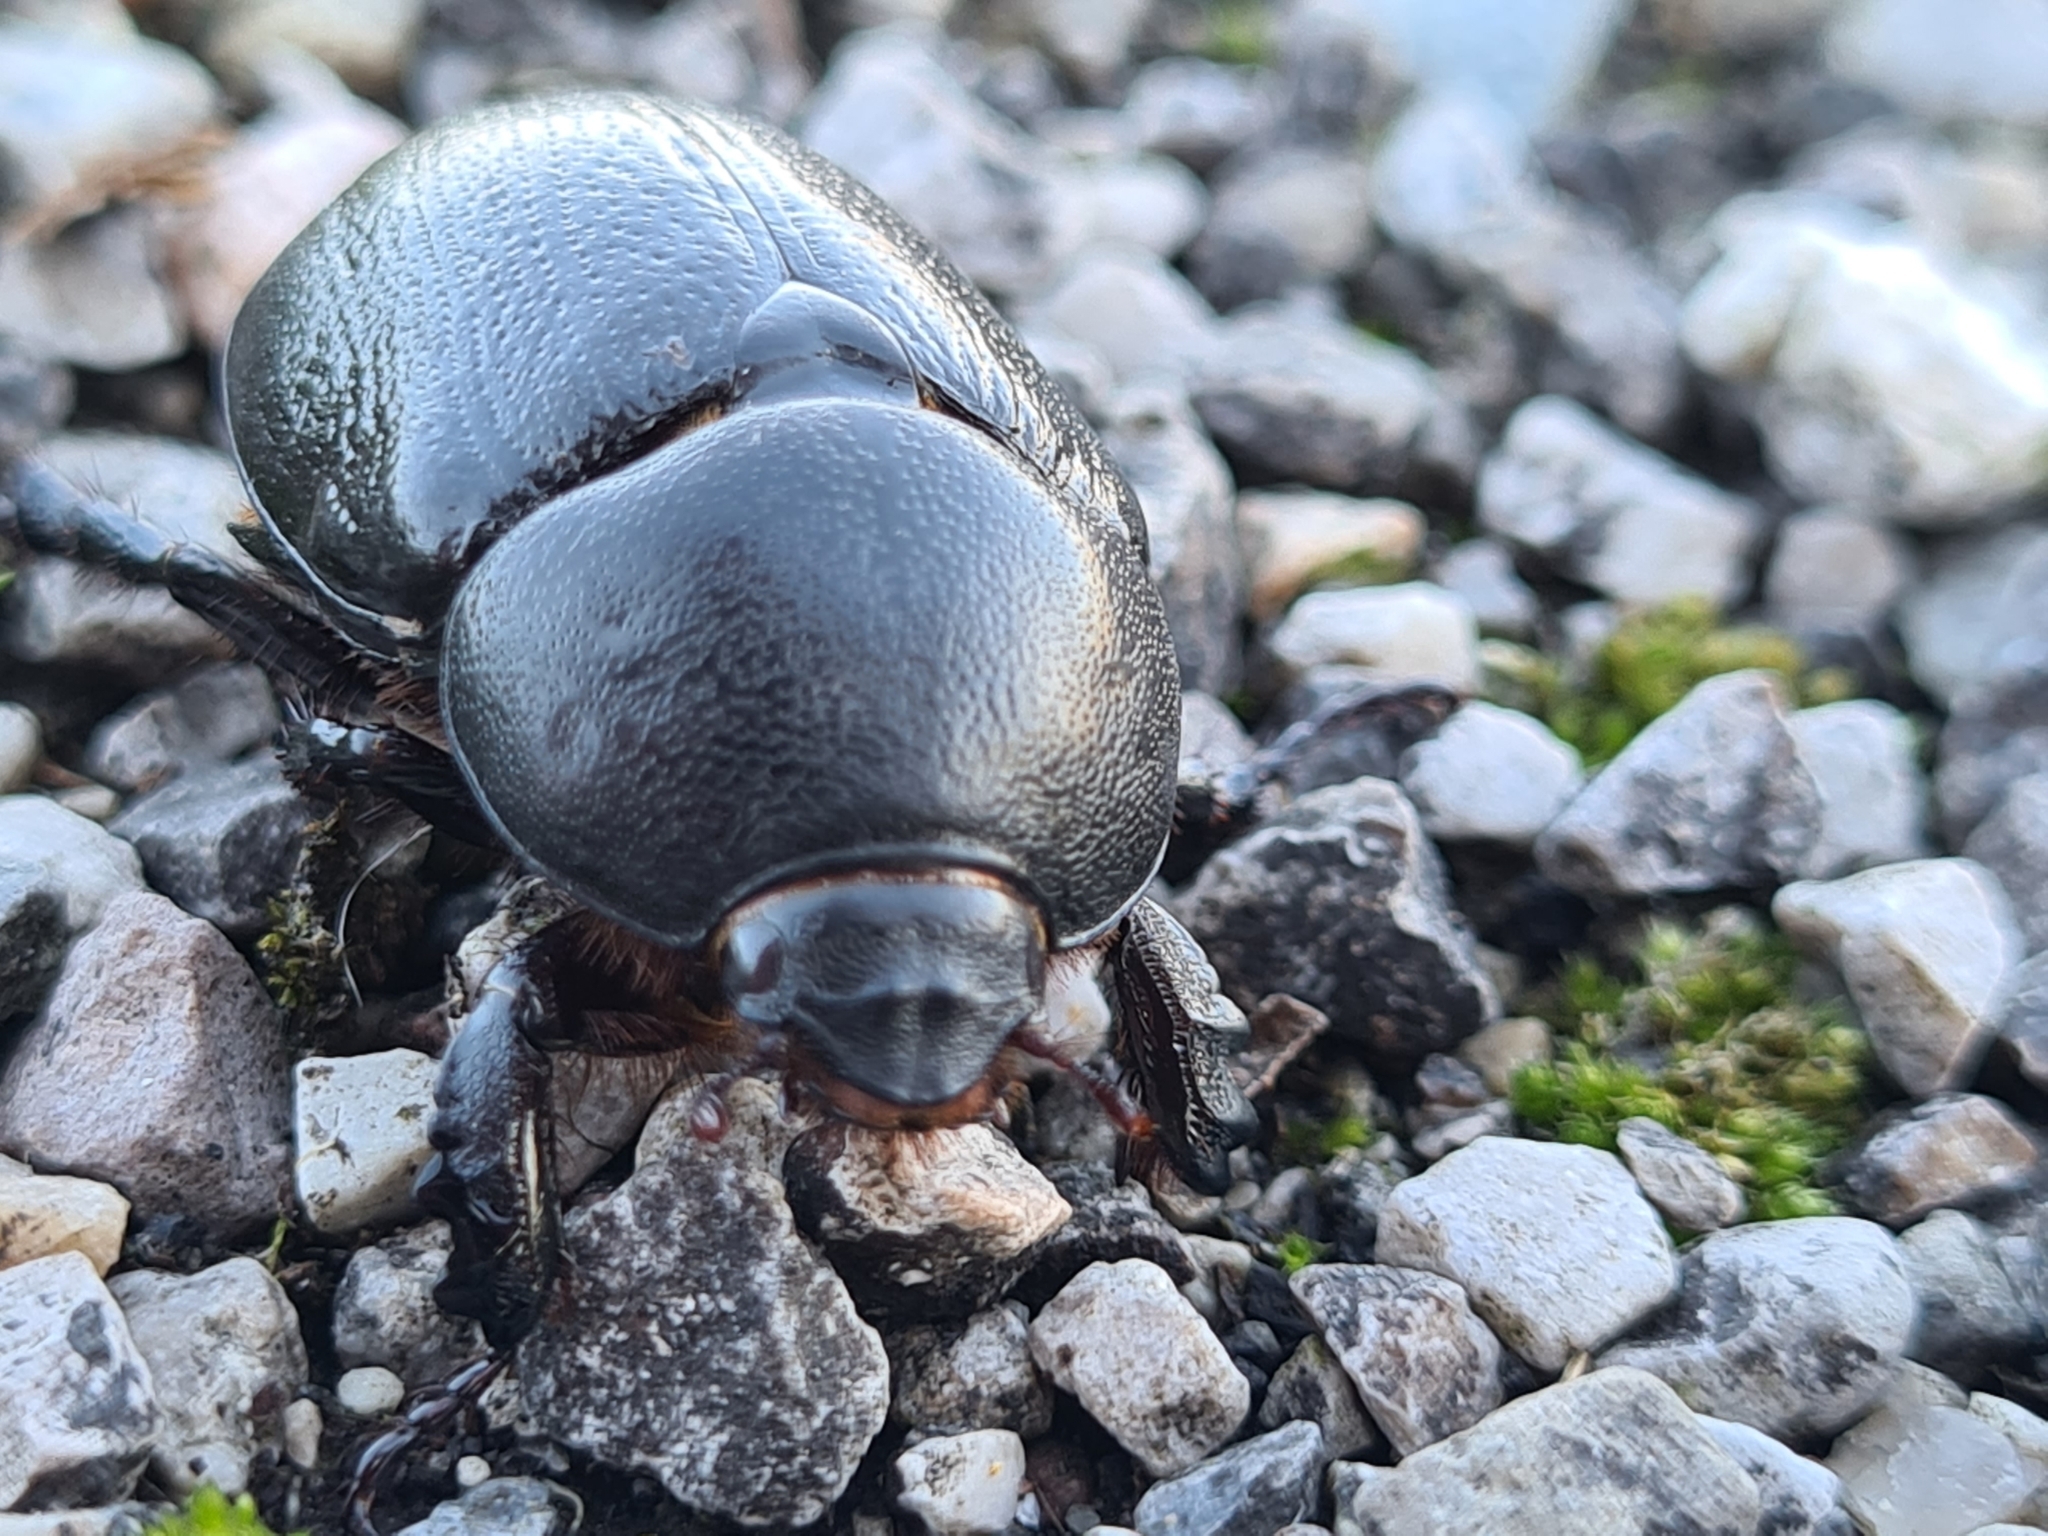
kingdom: Animalia
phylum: Arthropoda
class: Insecta
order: Coleoptera
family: Scarabaeidae
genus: Pentodon
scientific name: Pentodon bidens
